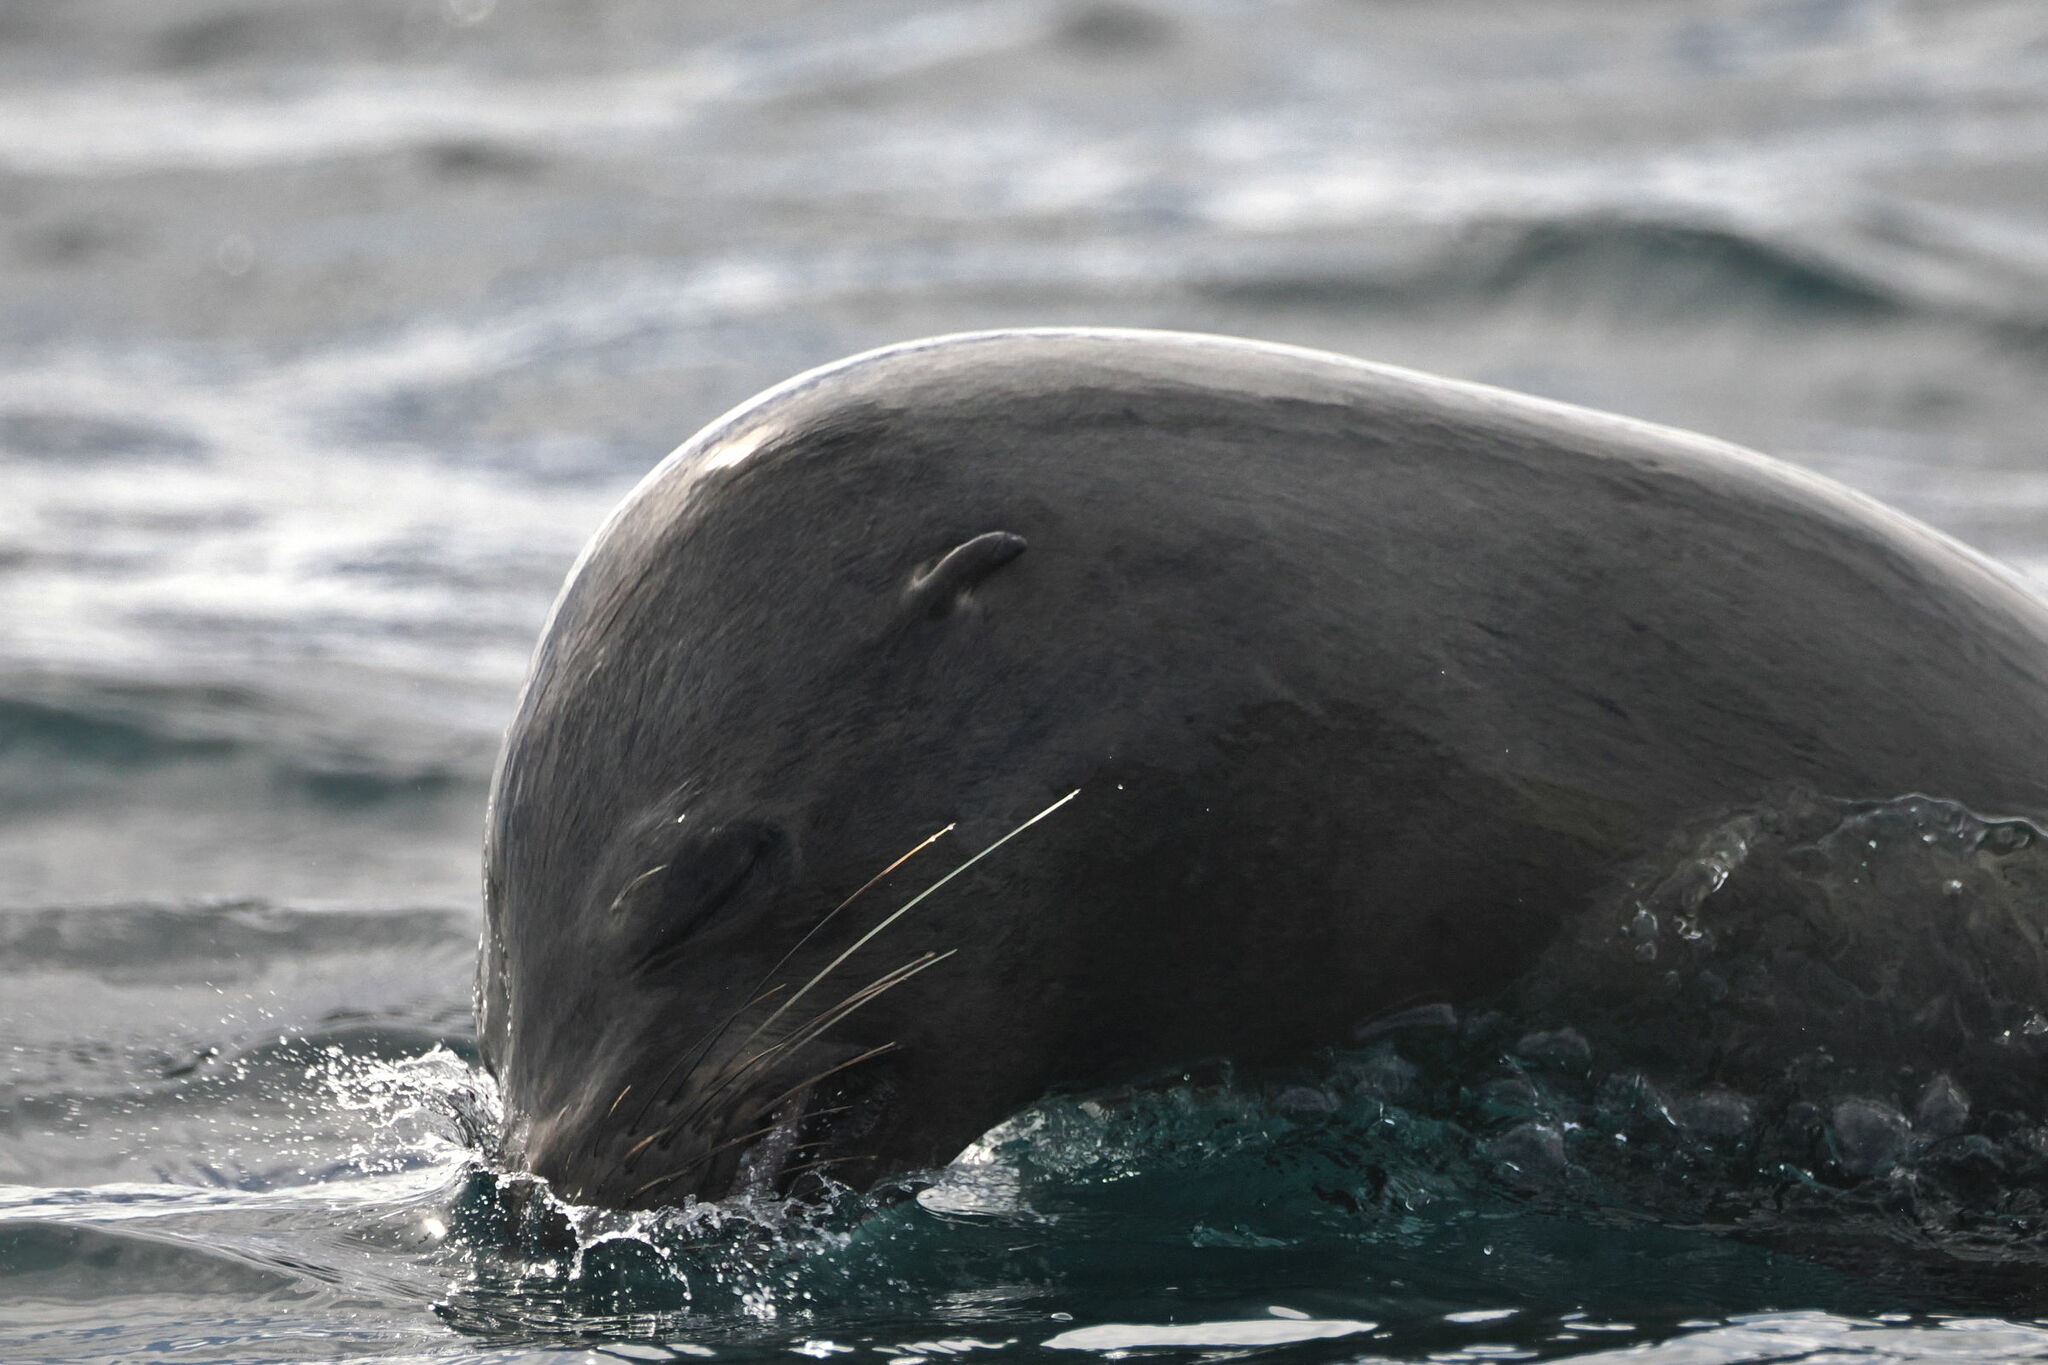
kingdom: Animalia
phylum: Chordata
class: Mammalia
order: Carnivora
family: Otariidae
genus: Zalophus
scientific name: Zalophus californianus
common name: California sea lion
